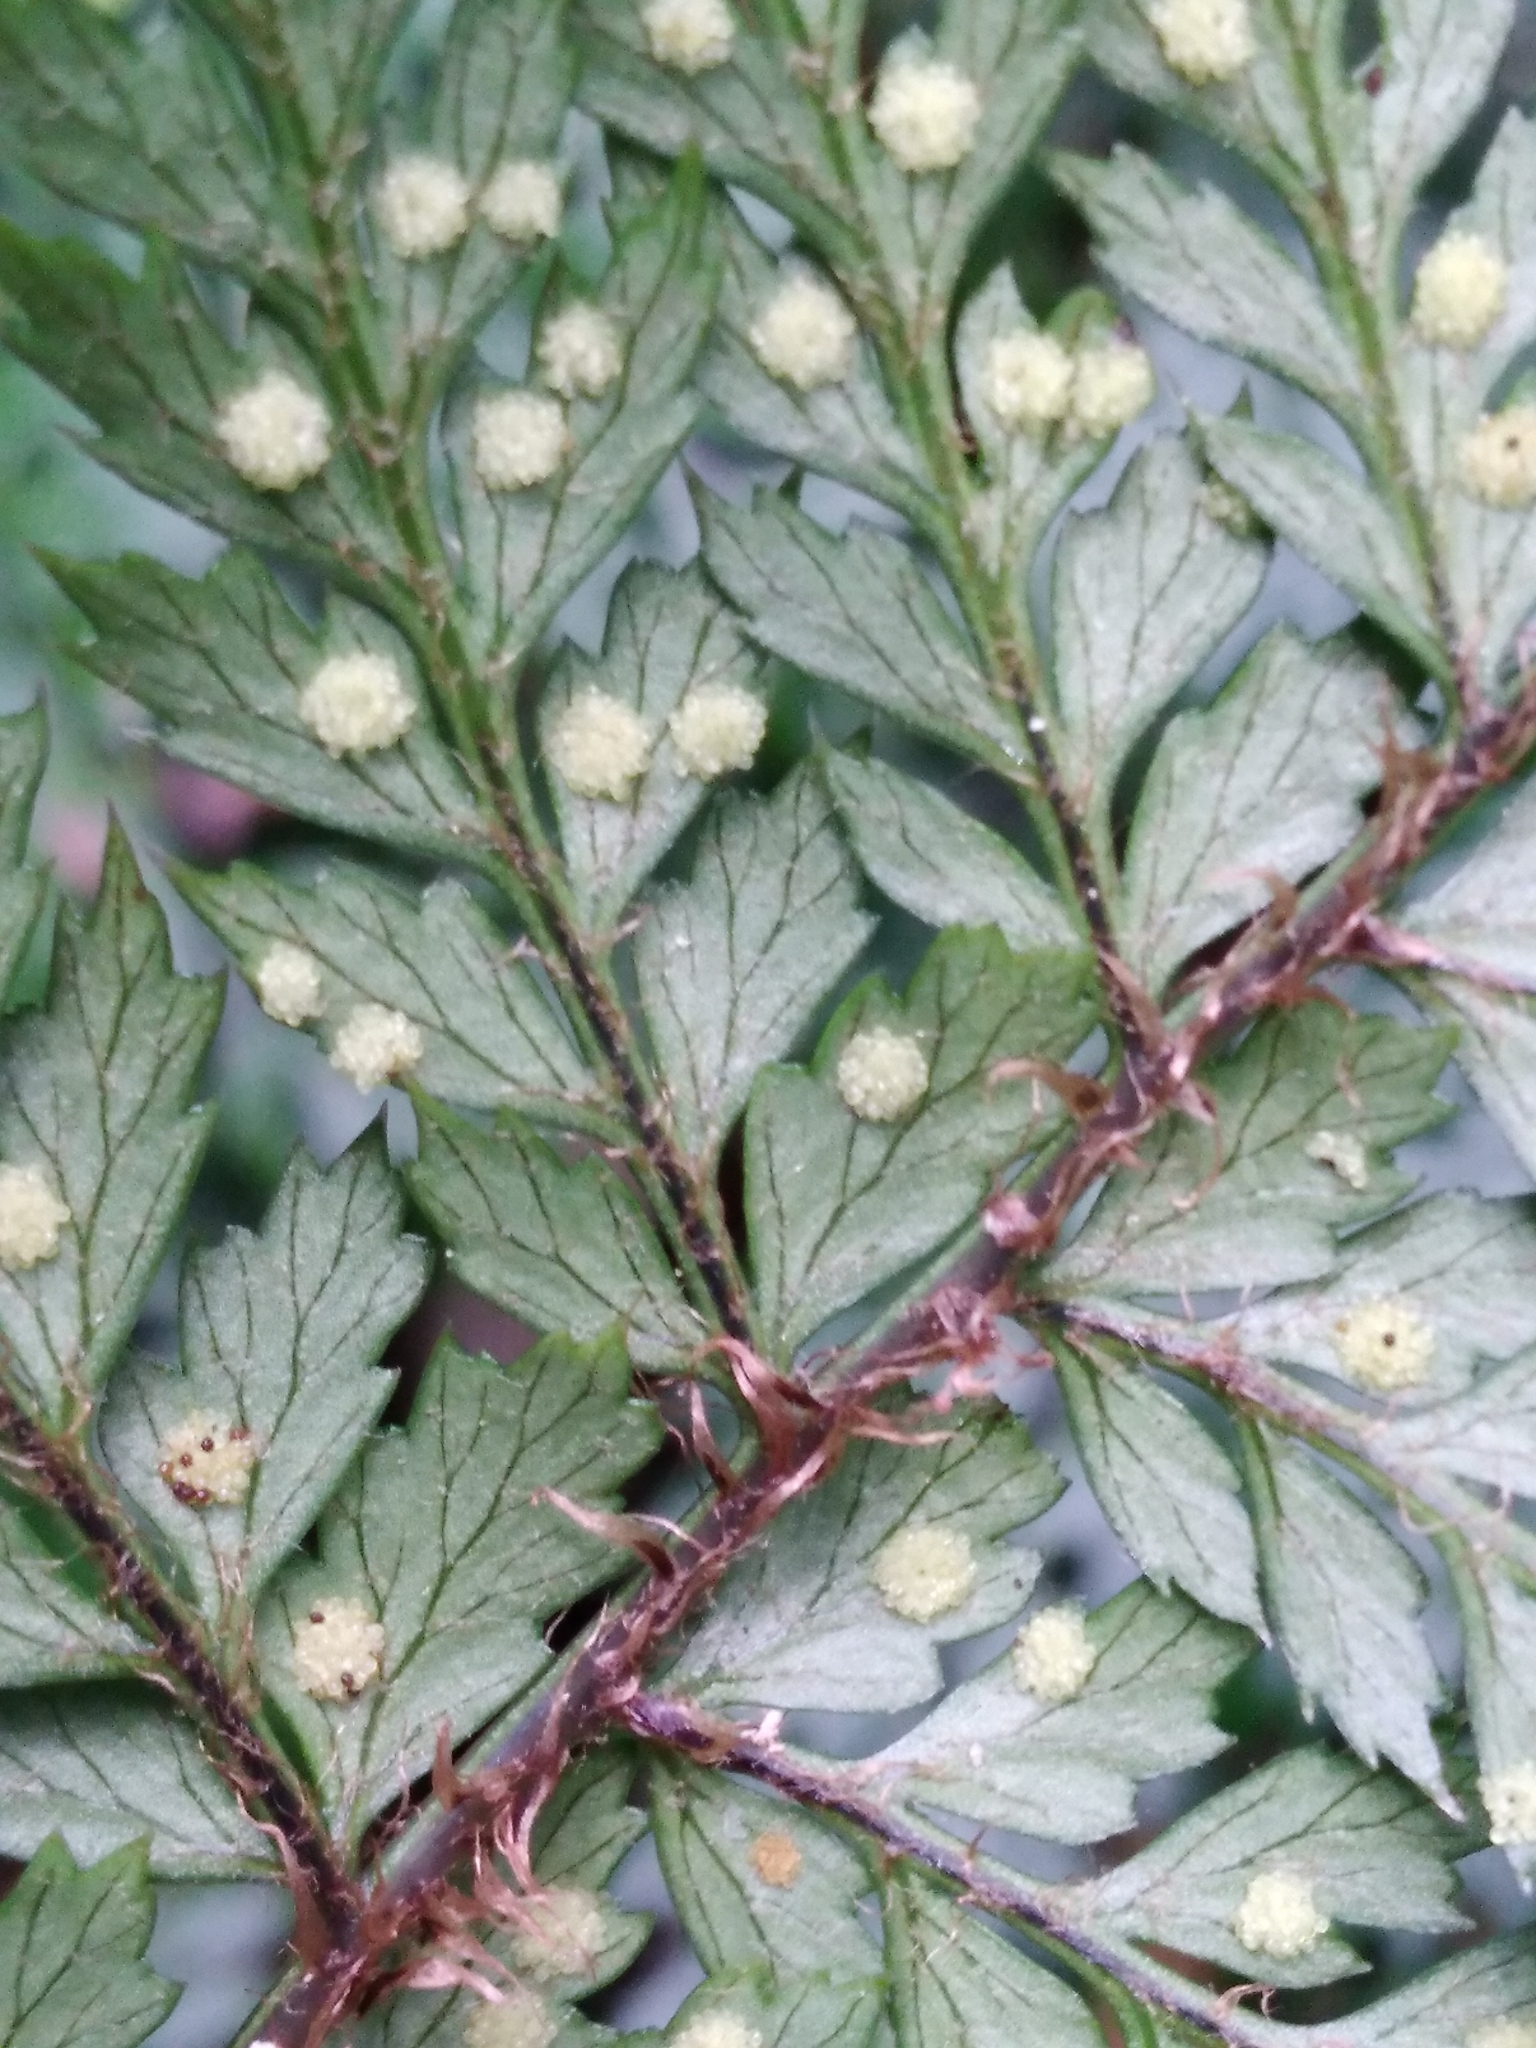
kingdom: Plantae
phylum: Tracheophyta
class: Polypodiopsida
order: Polypodiales
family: Dryopteridaceae
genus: Polystichum
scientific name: Polystichum silvaticum
